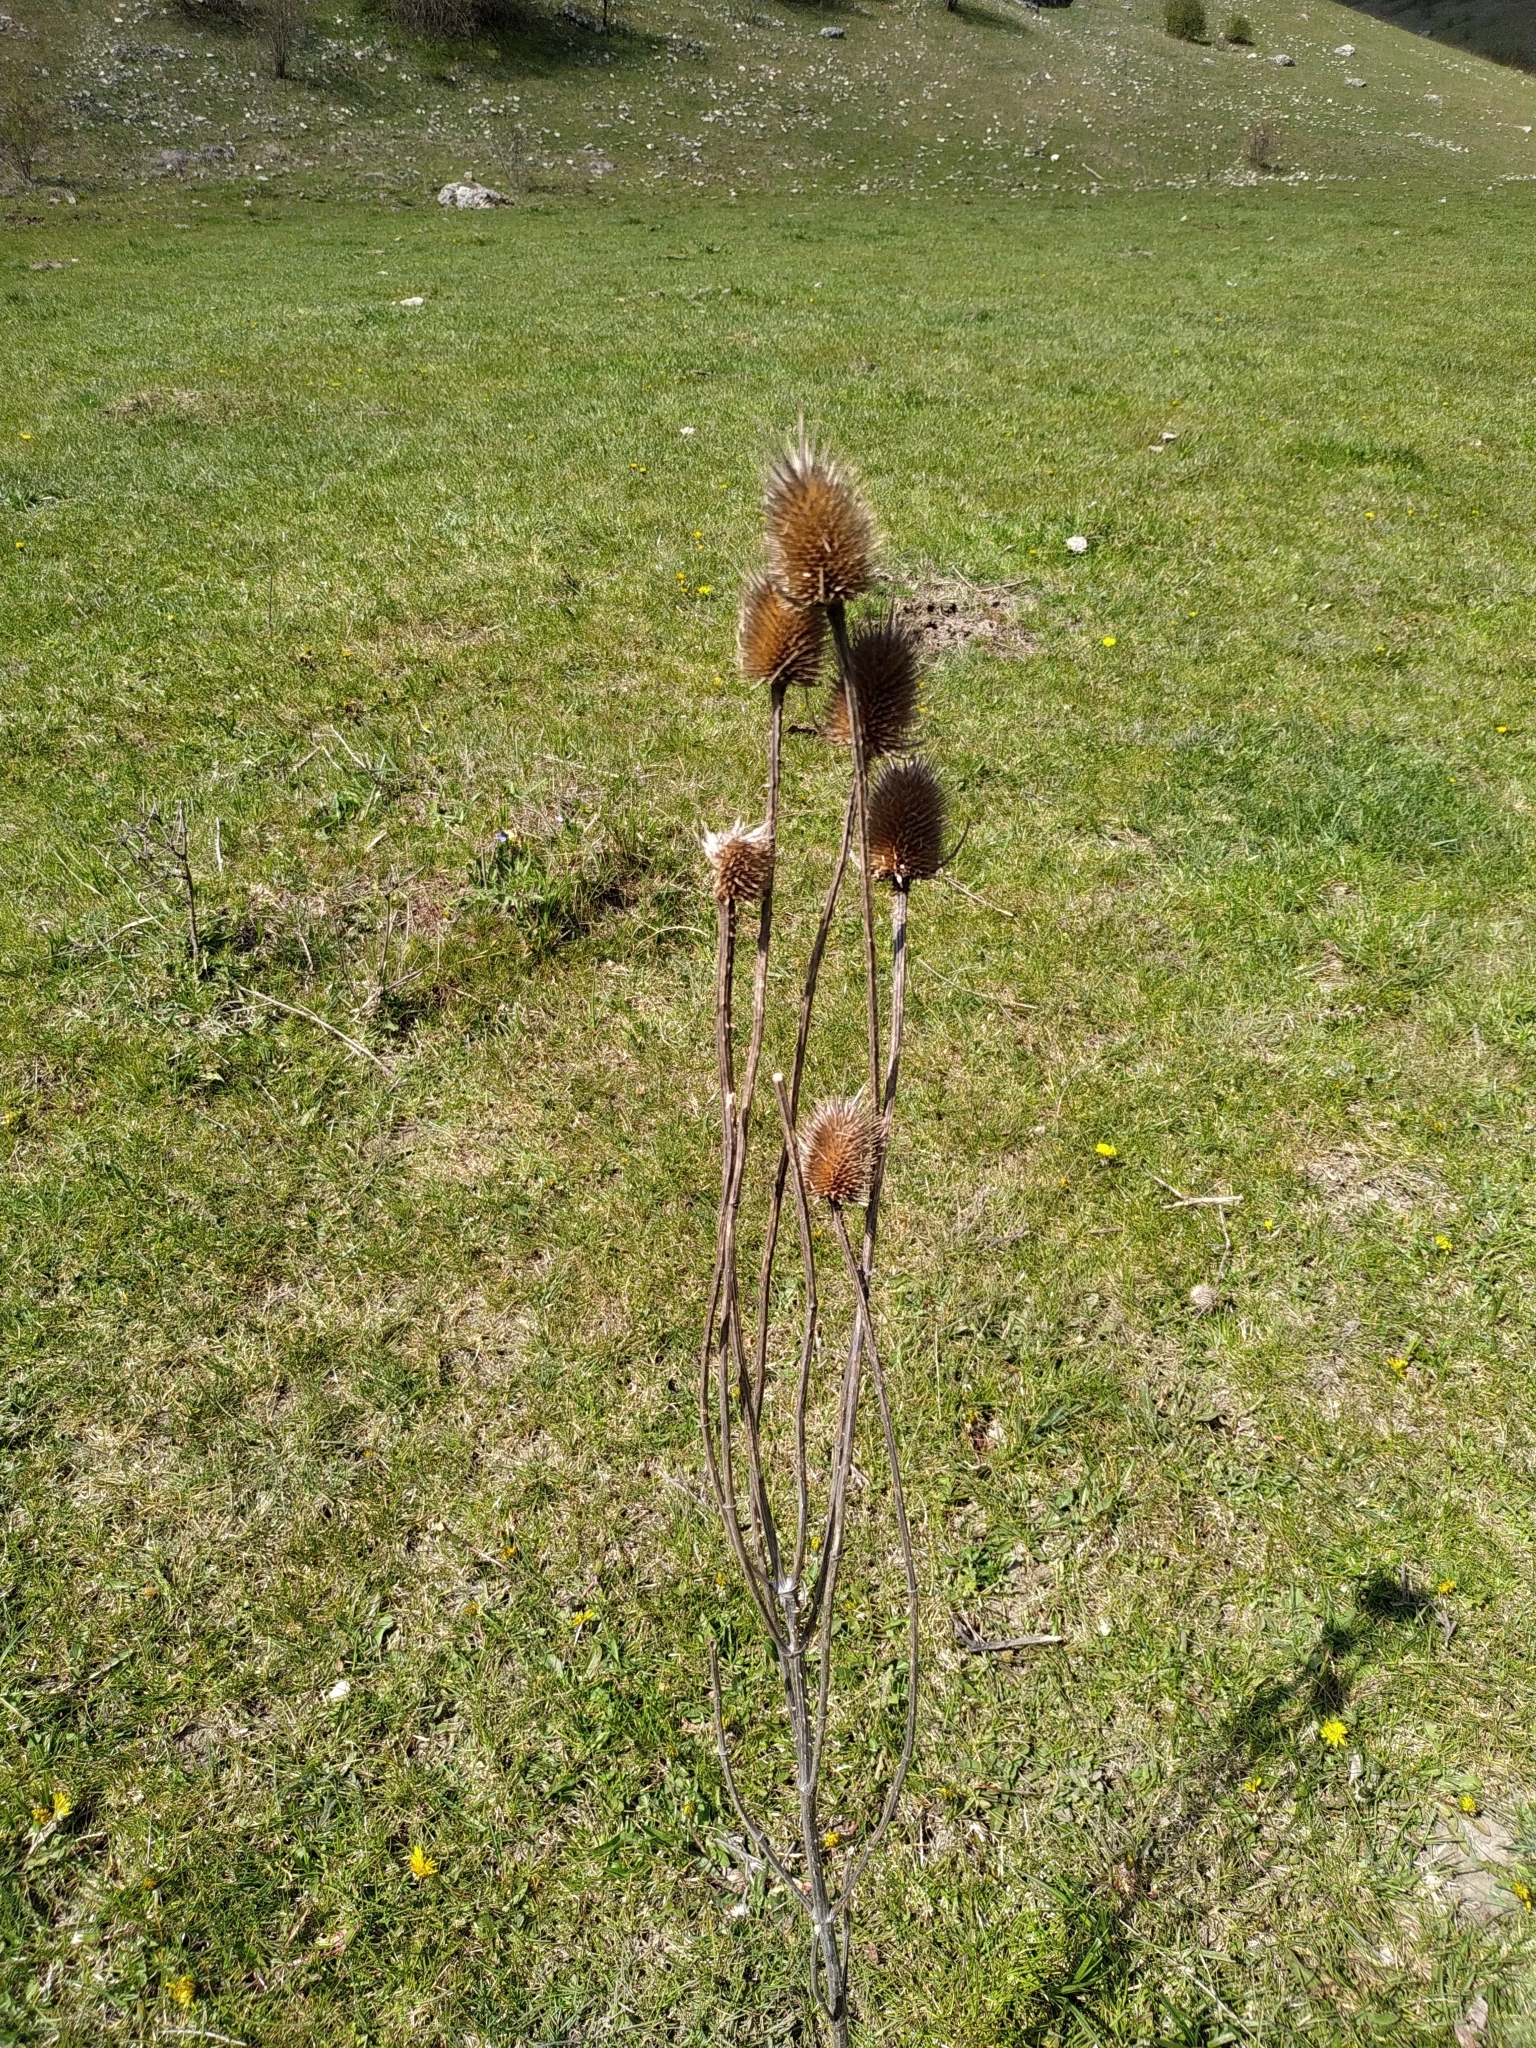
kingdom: Plantae
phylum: Tracheophyta
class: Magnoliopsida
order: Dipsacales
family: Caprifoliaceae
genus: Dipsacus
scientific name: Dipsacus laciniatus
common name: Cut-leaved teasel
